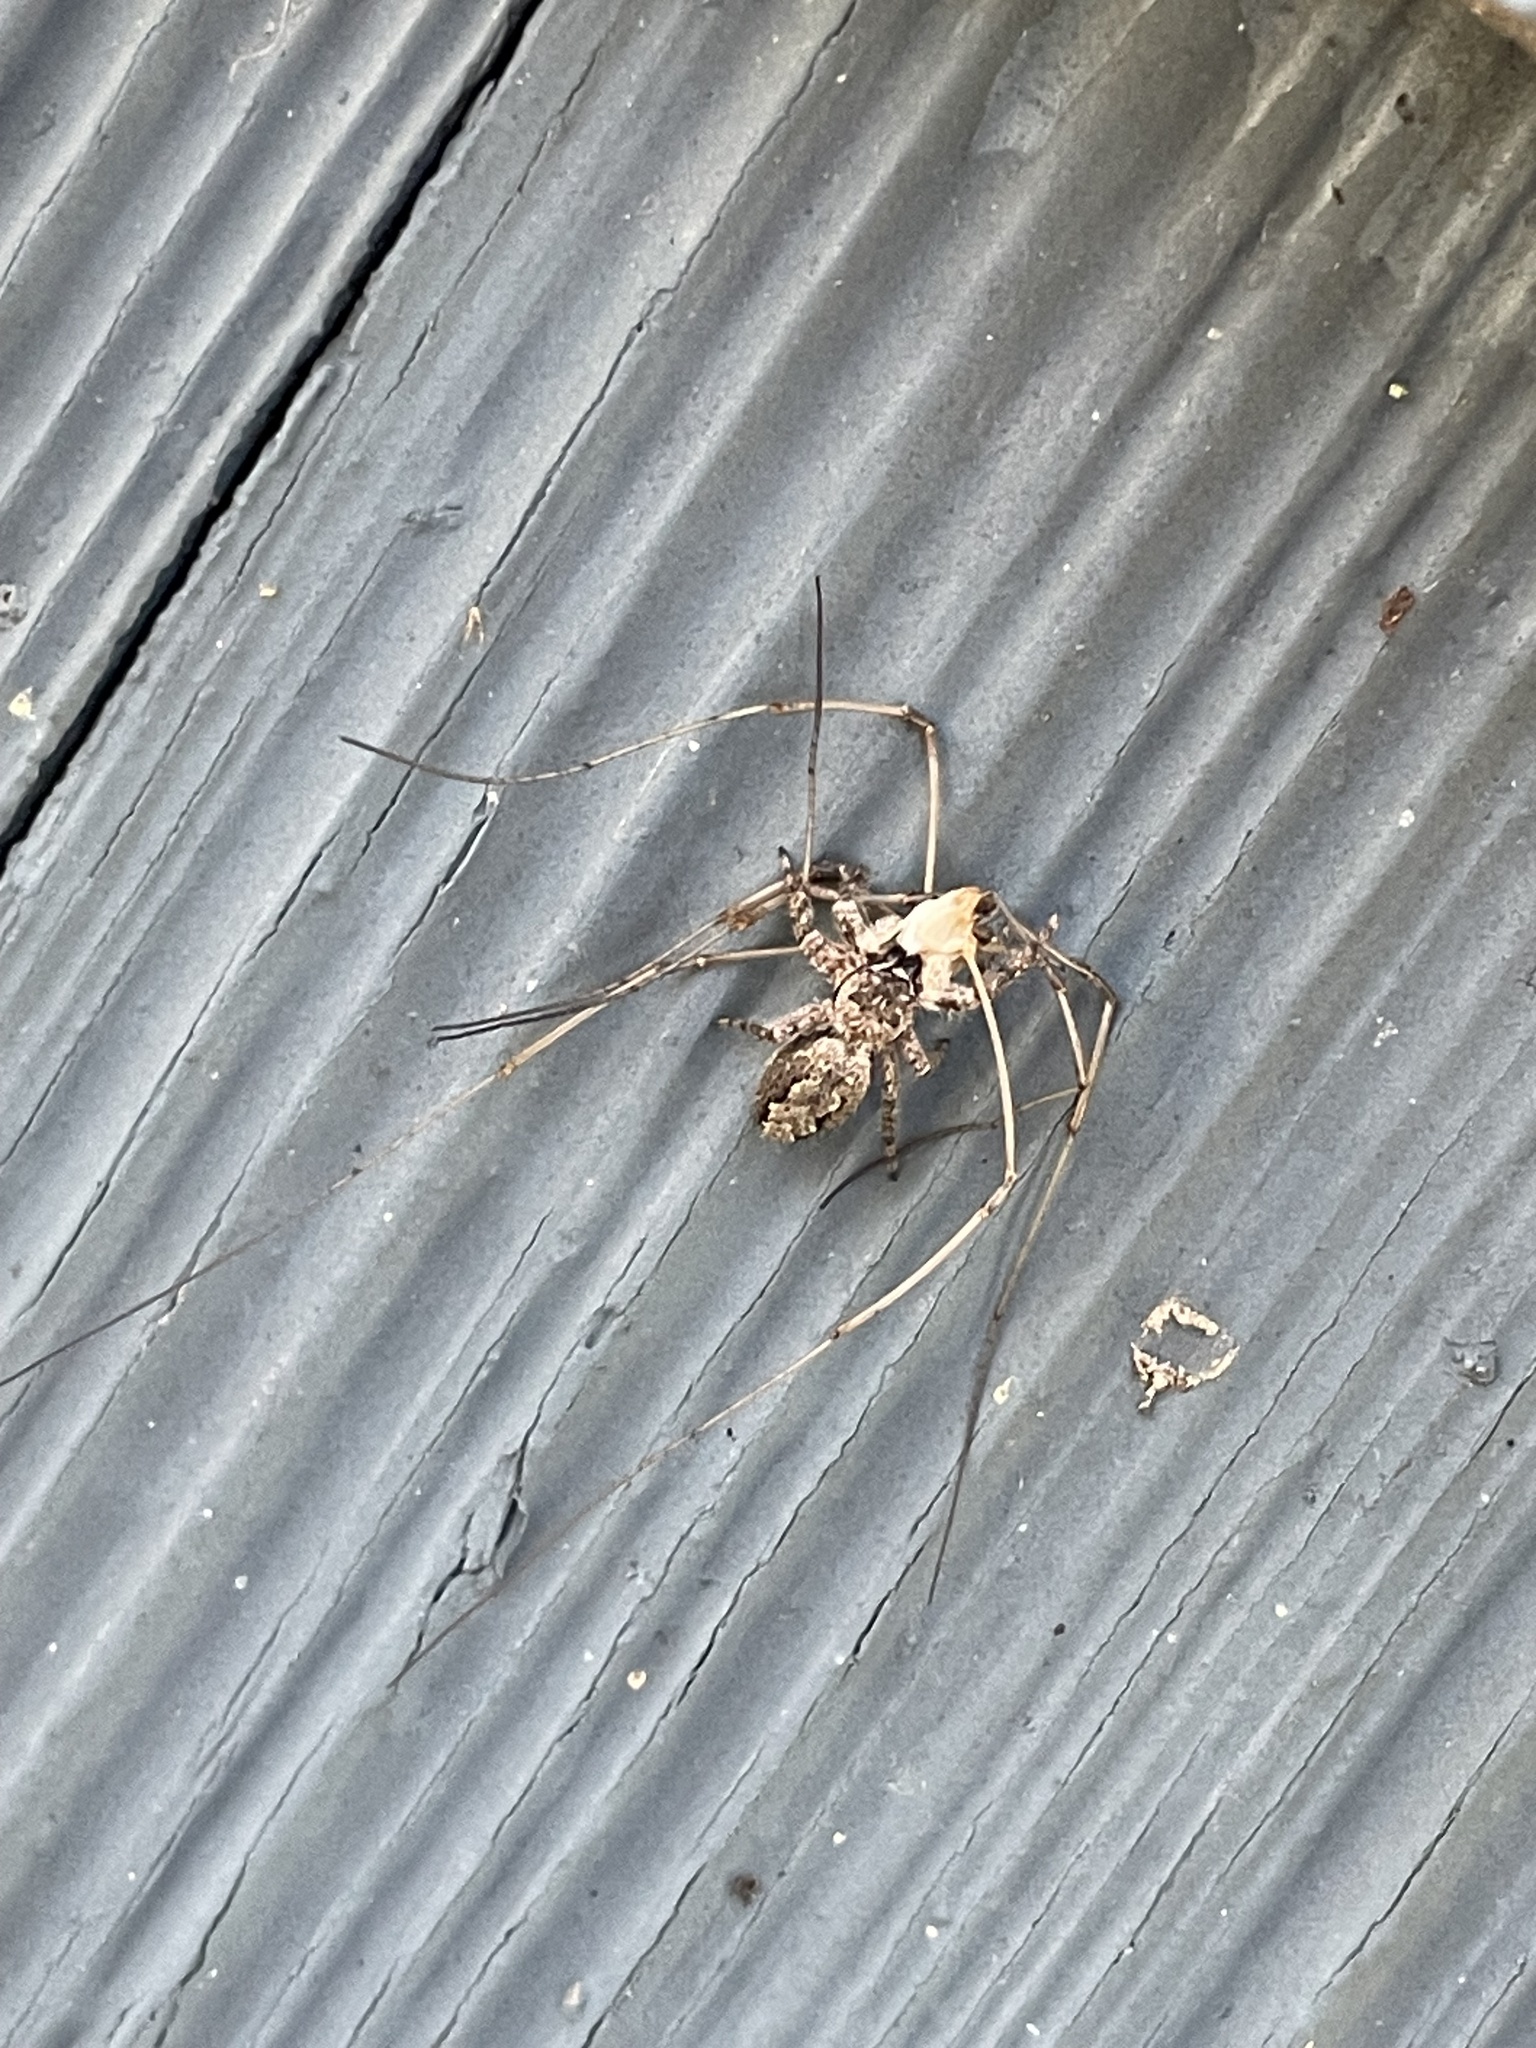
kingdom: Animalia
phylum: Arthropoda
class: Arachnida
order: Araneae
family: Salticidae
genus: Platycryptus
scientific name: Platycryptus undatus
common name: Tan jumping spider
